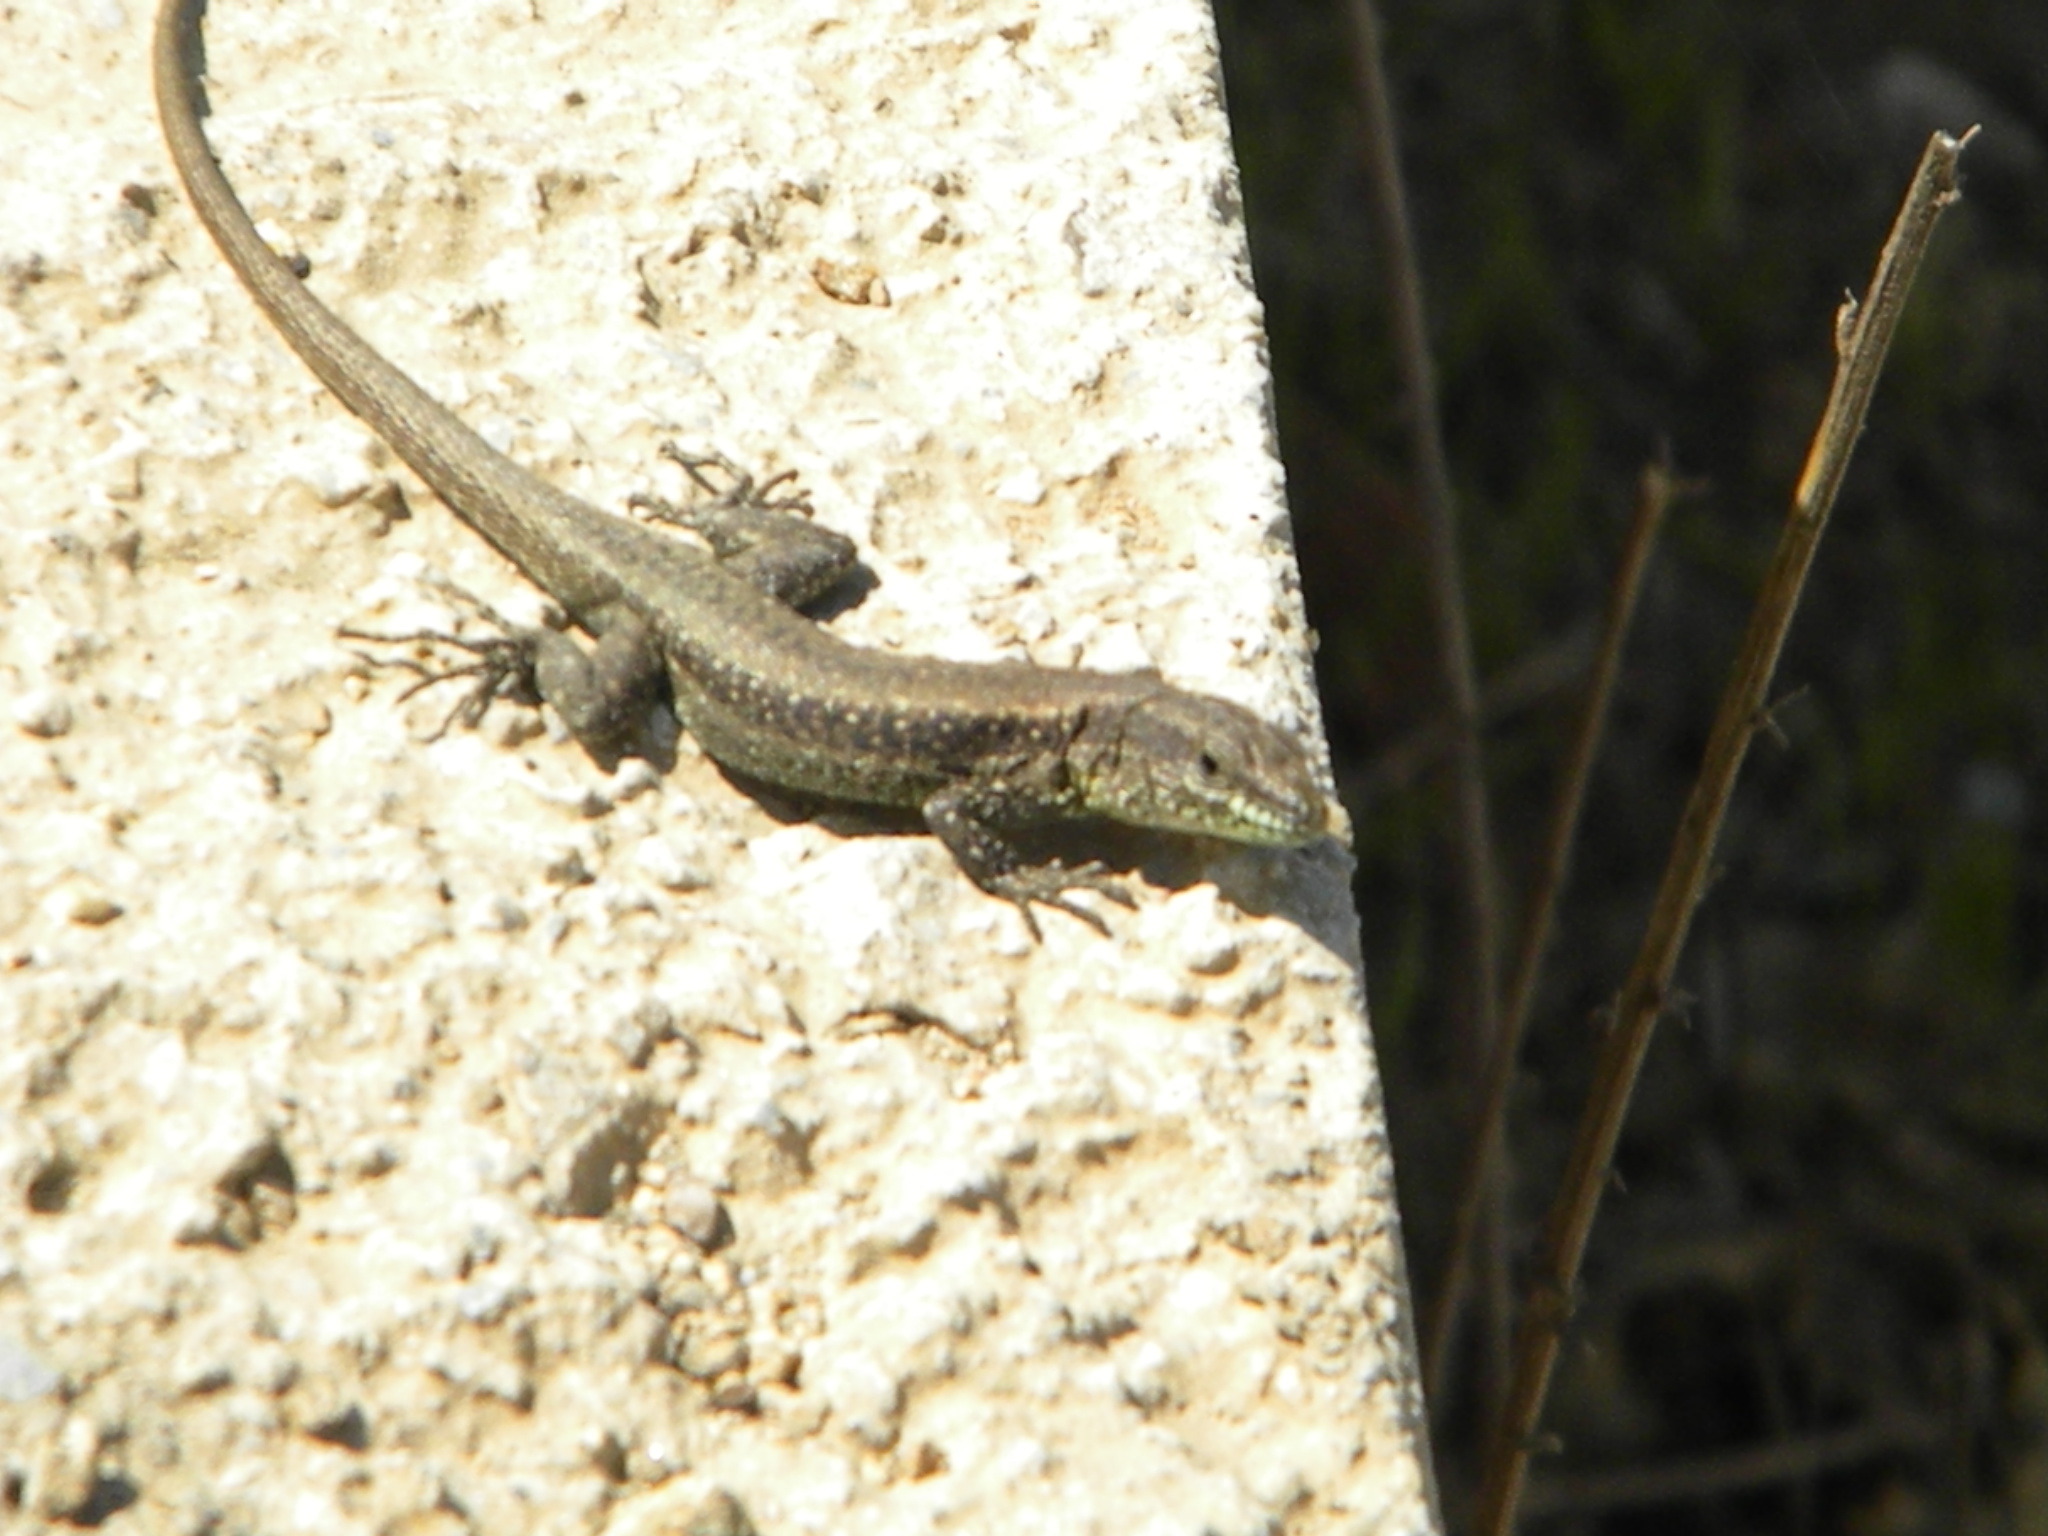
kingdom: Animalia
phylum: Chordata
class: Squamata
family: Lacertidae
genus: Anatololacerta
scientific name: Anatololacerta anatolica
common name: Anatolian rock lizard
